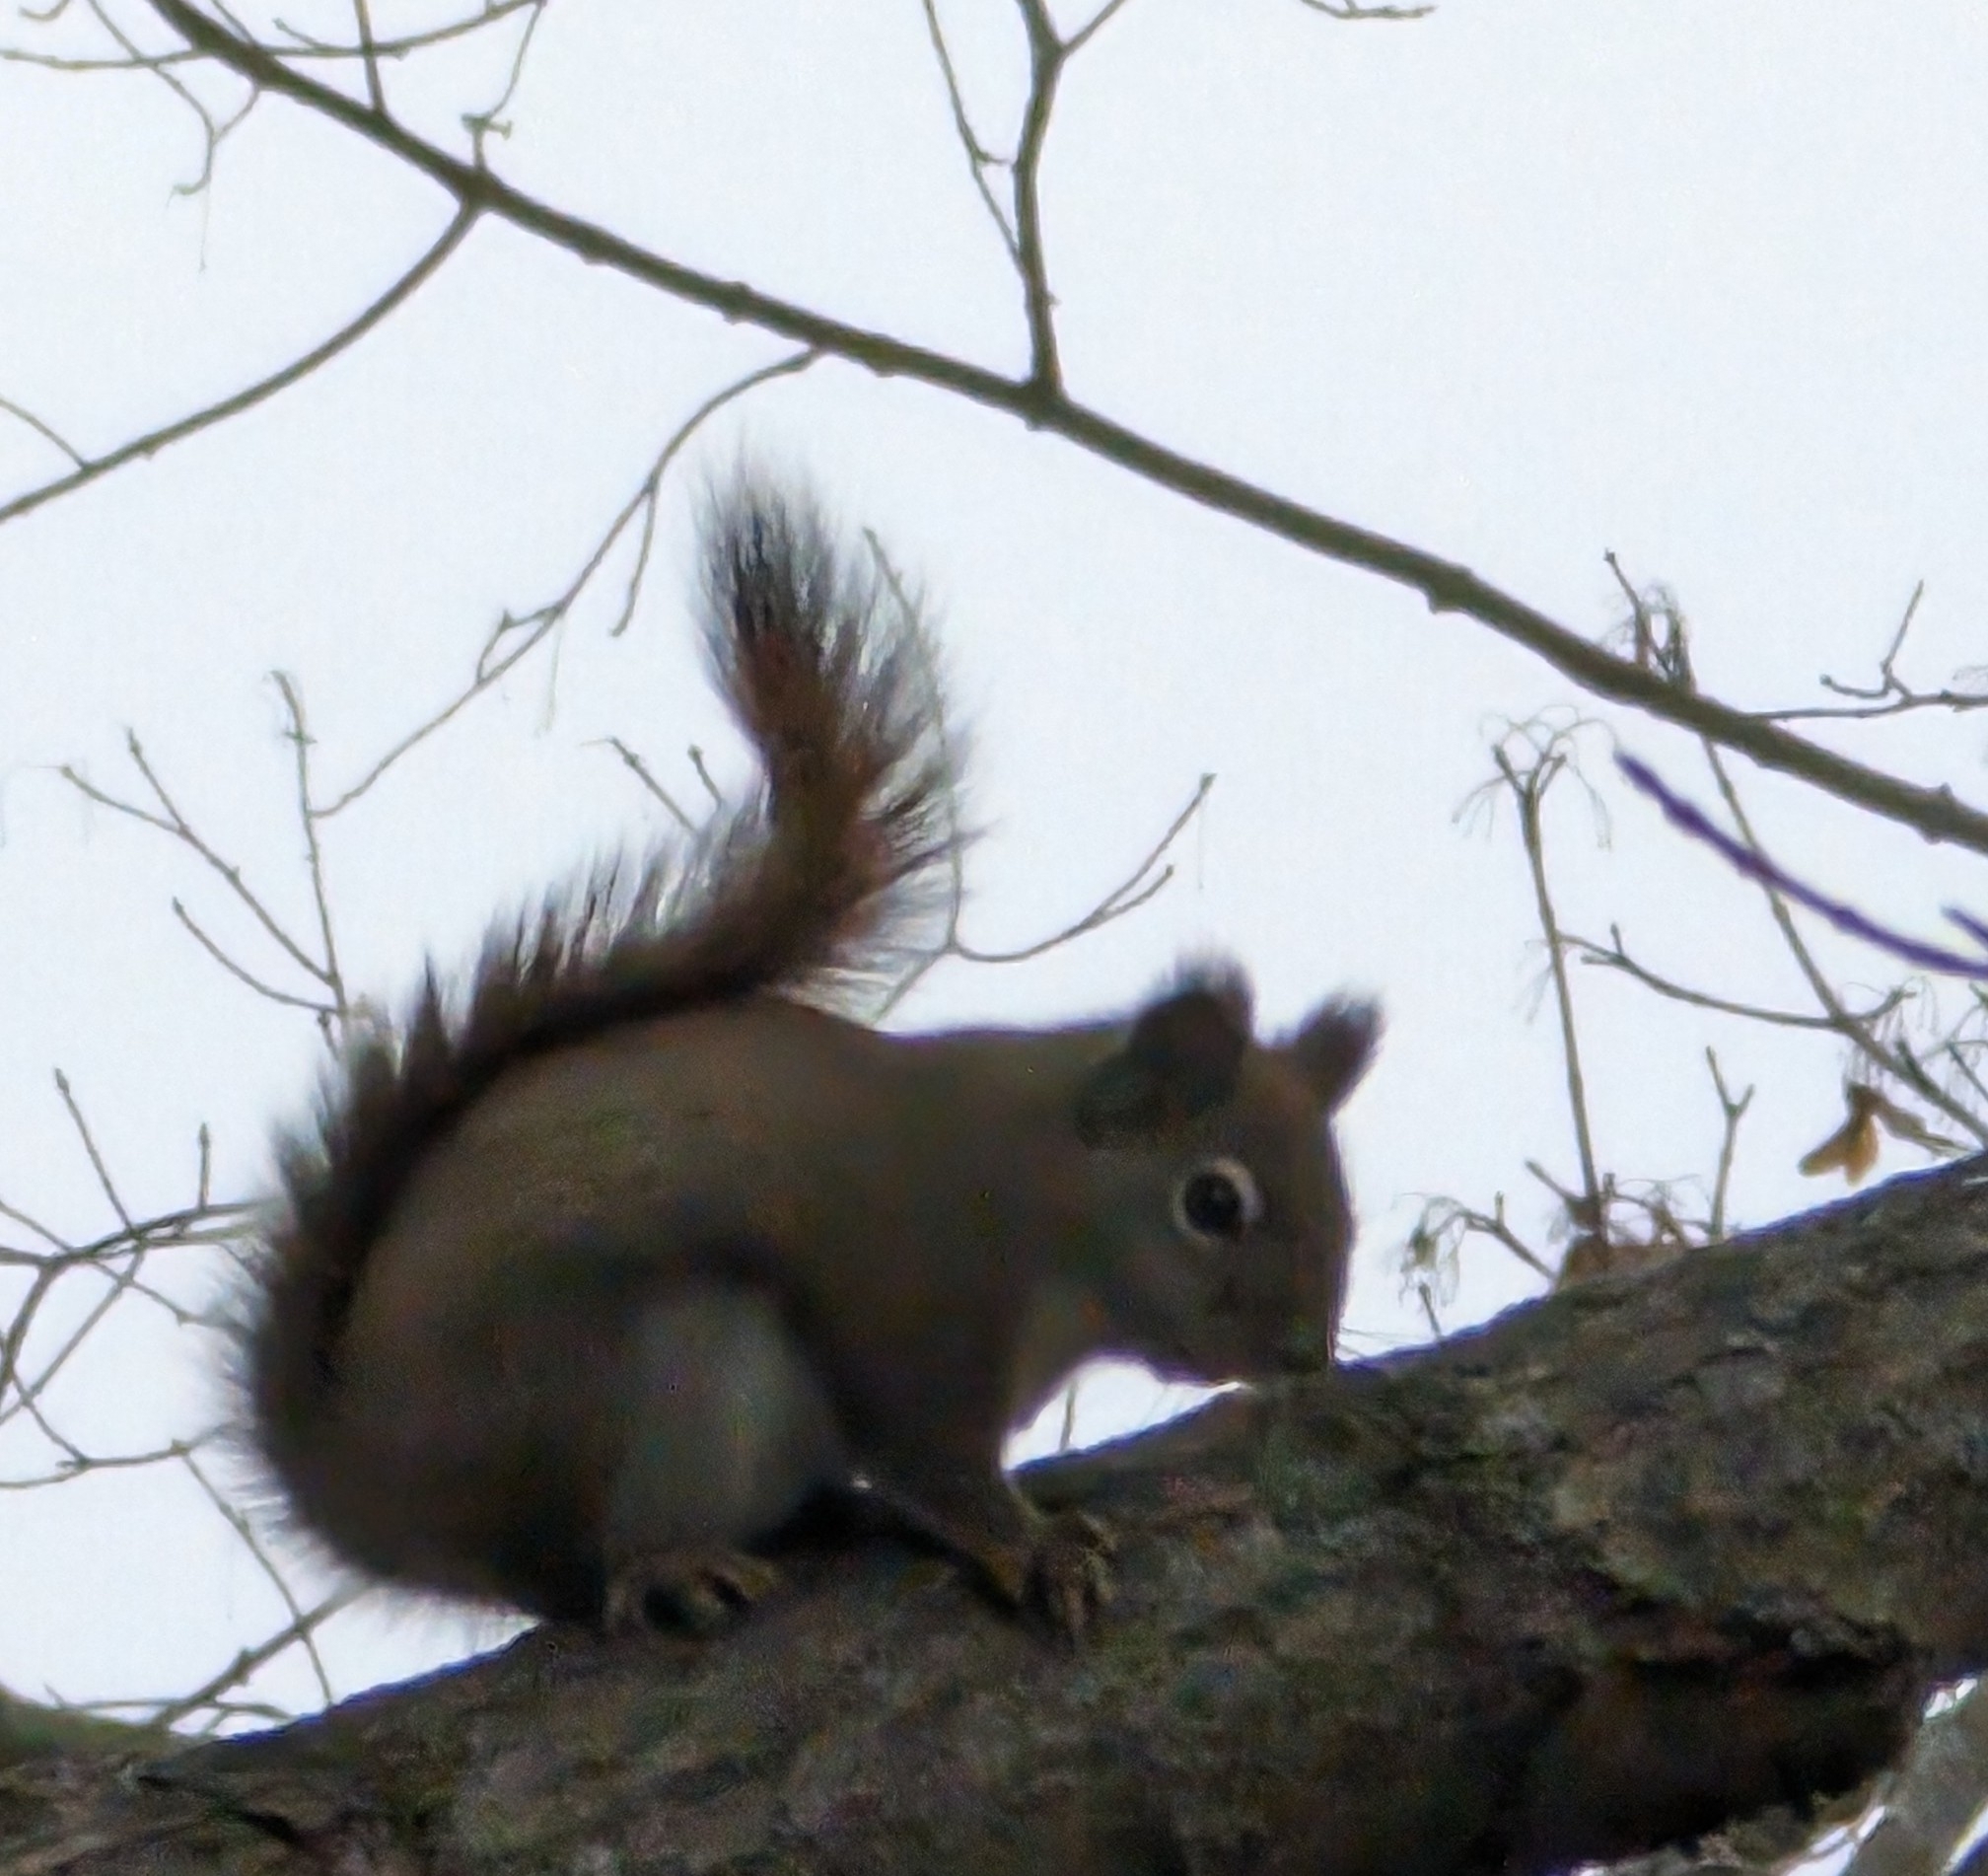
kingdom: Animalia
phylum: Chordata
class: Mammalia
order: Rodentia
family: Sciuridae
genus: Tamiasciurus
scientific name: Tamiasciurus hudsonicus
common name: Red squirrel
